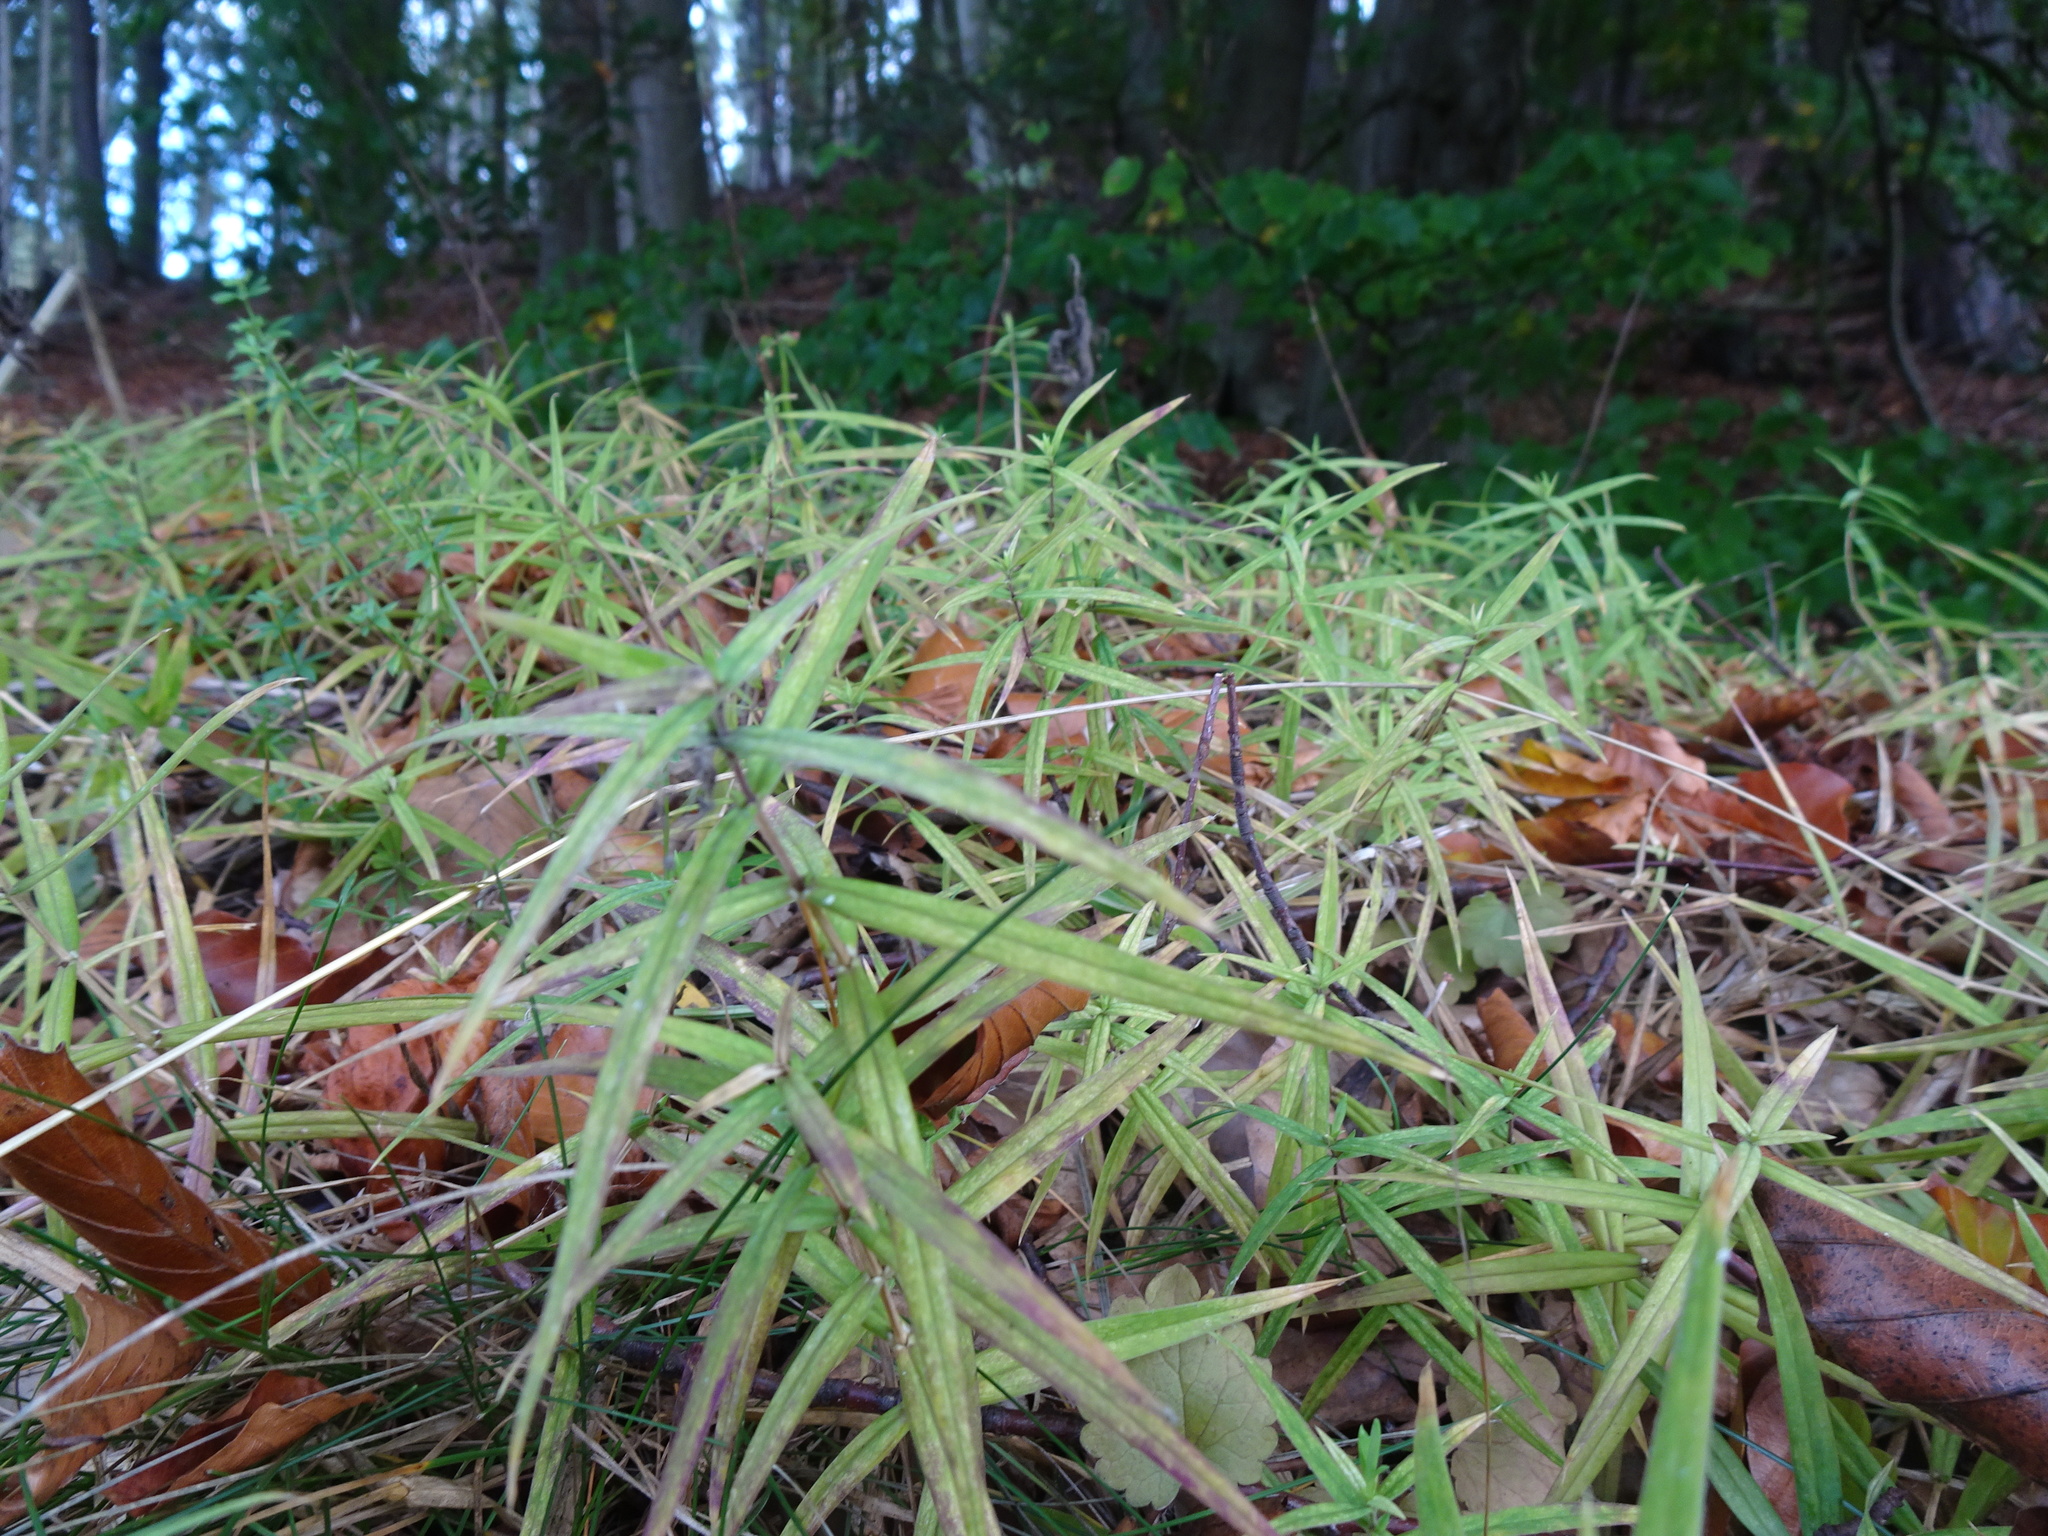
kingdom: Plantae
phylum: Tracheophyta
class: Magnoliopsida
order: Caryophyllales
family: Caryophyllaceae
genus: Rabelera
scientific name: Rabelera holostea
